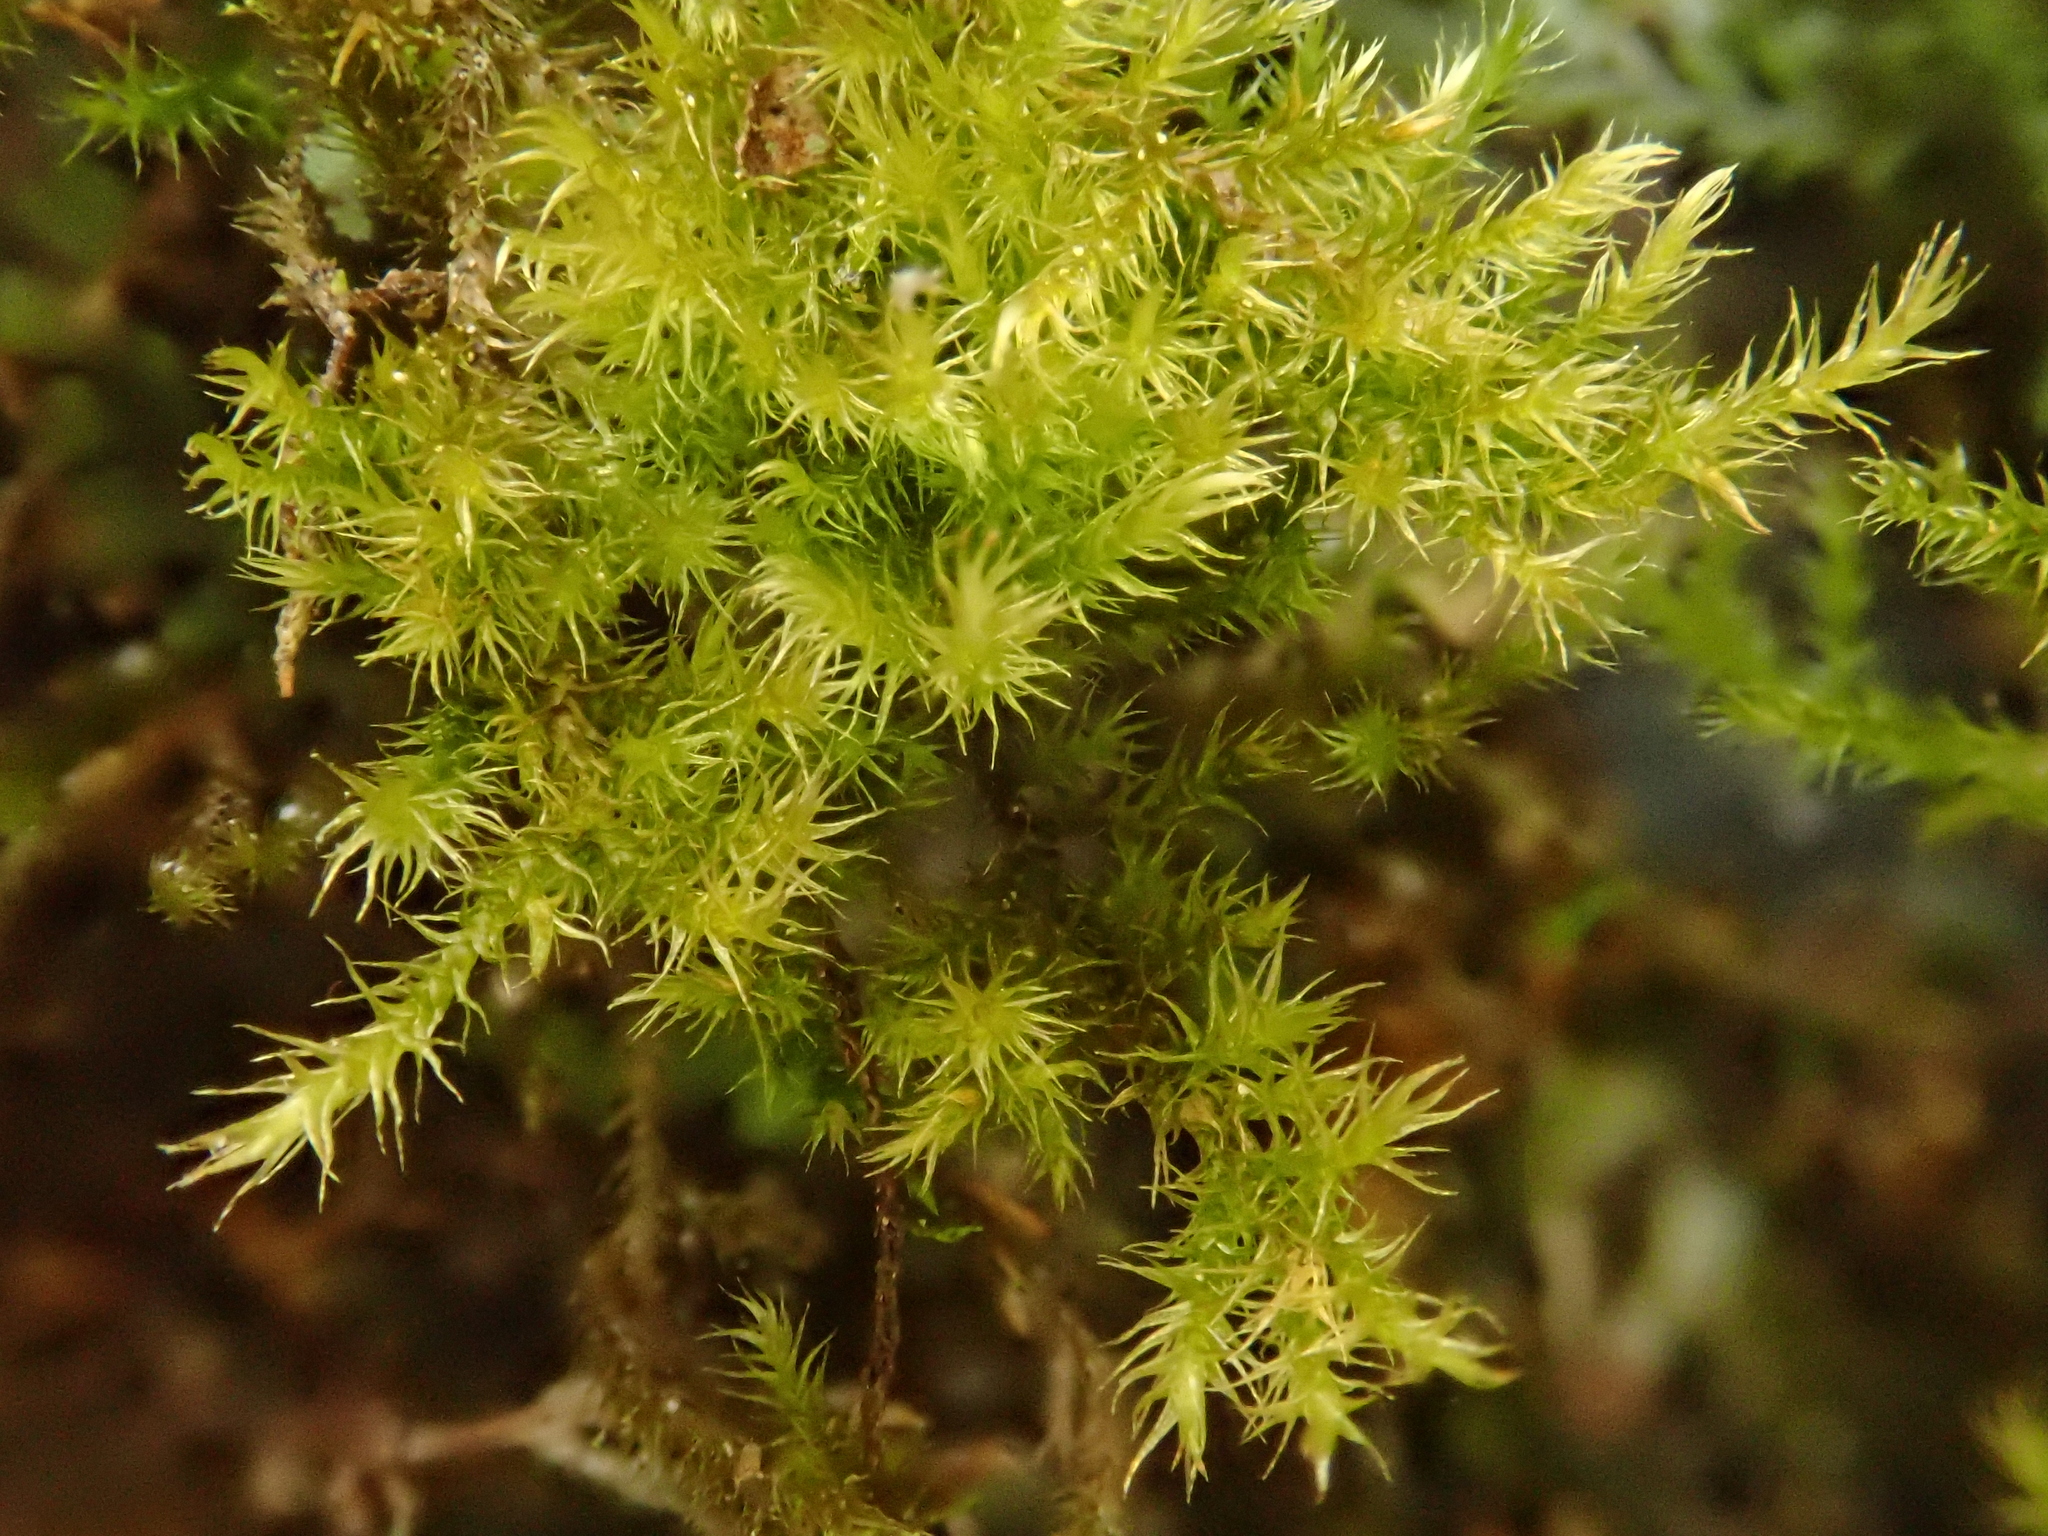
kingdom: Plantae
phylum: Bryophyta
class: Bryopsida
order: Hypnales
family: Amblystegiaceae
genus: Campylium
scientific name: Campylium chrysophyllum
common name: Goldenleaf campylium moss
